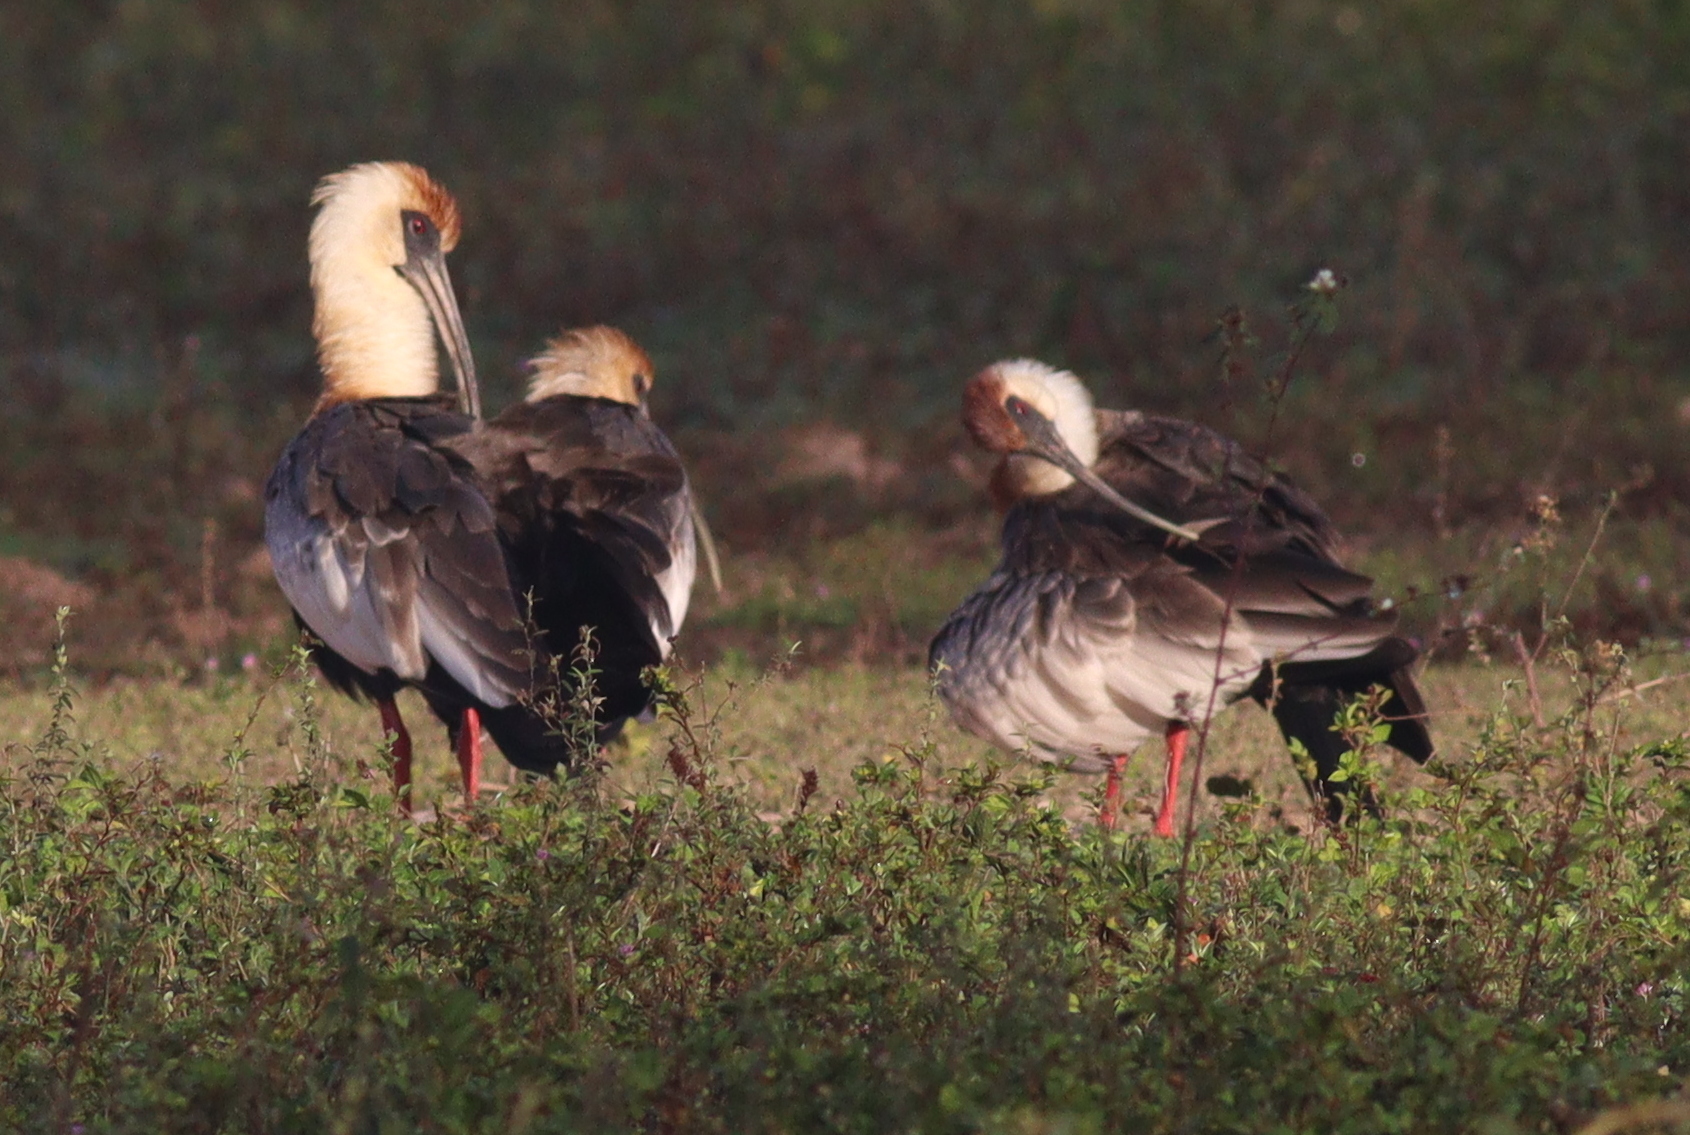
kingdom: Animalia
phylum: Chordata
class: Aves
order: Pelecaniformes
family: Threskiornithidae
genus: Theristicus
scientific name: Theristicus caudatus
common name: Buff-necked ibis
